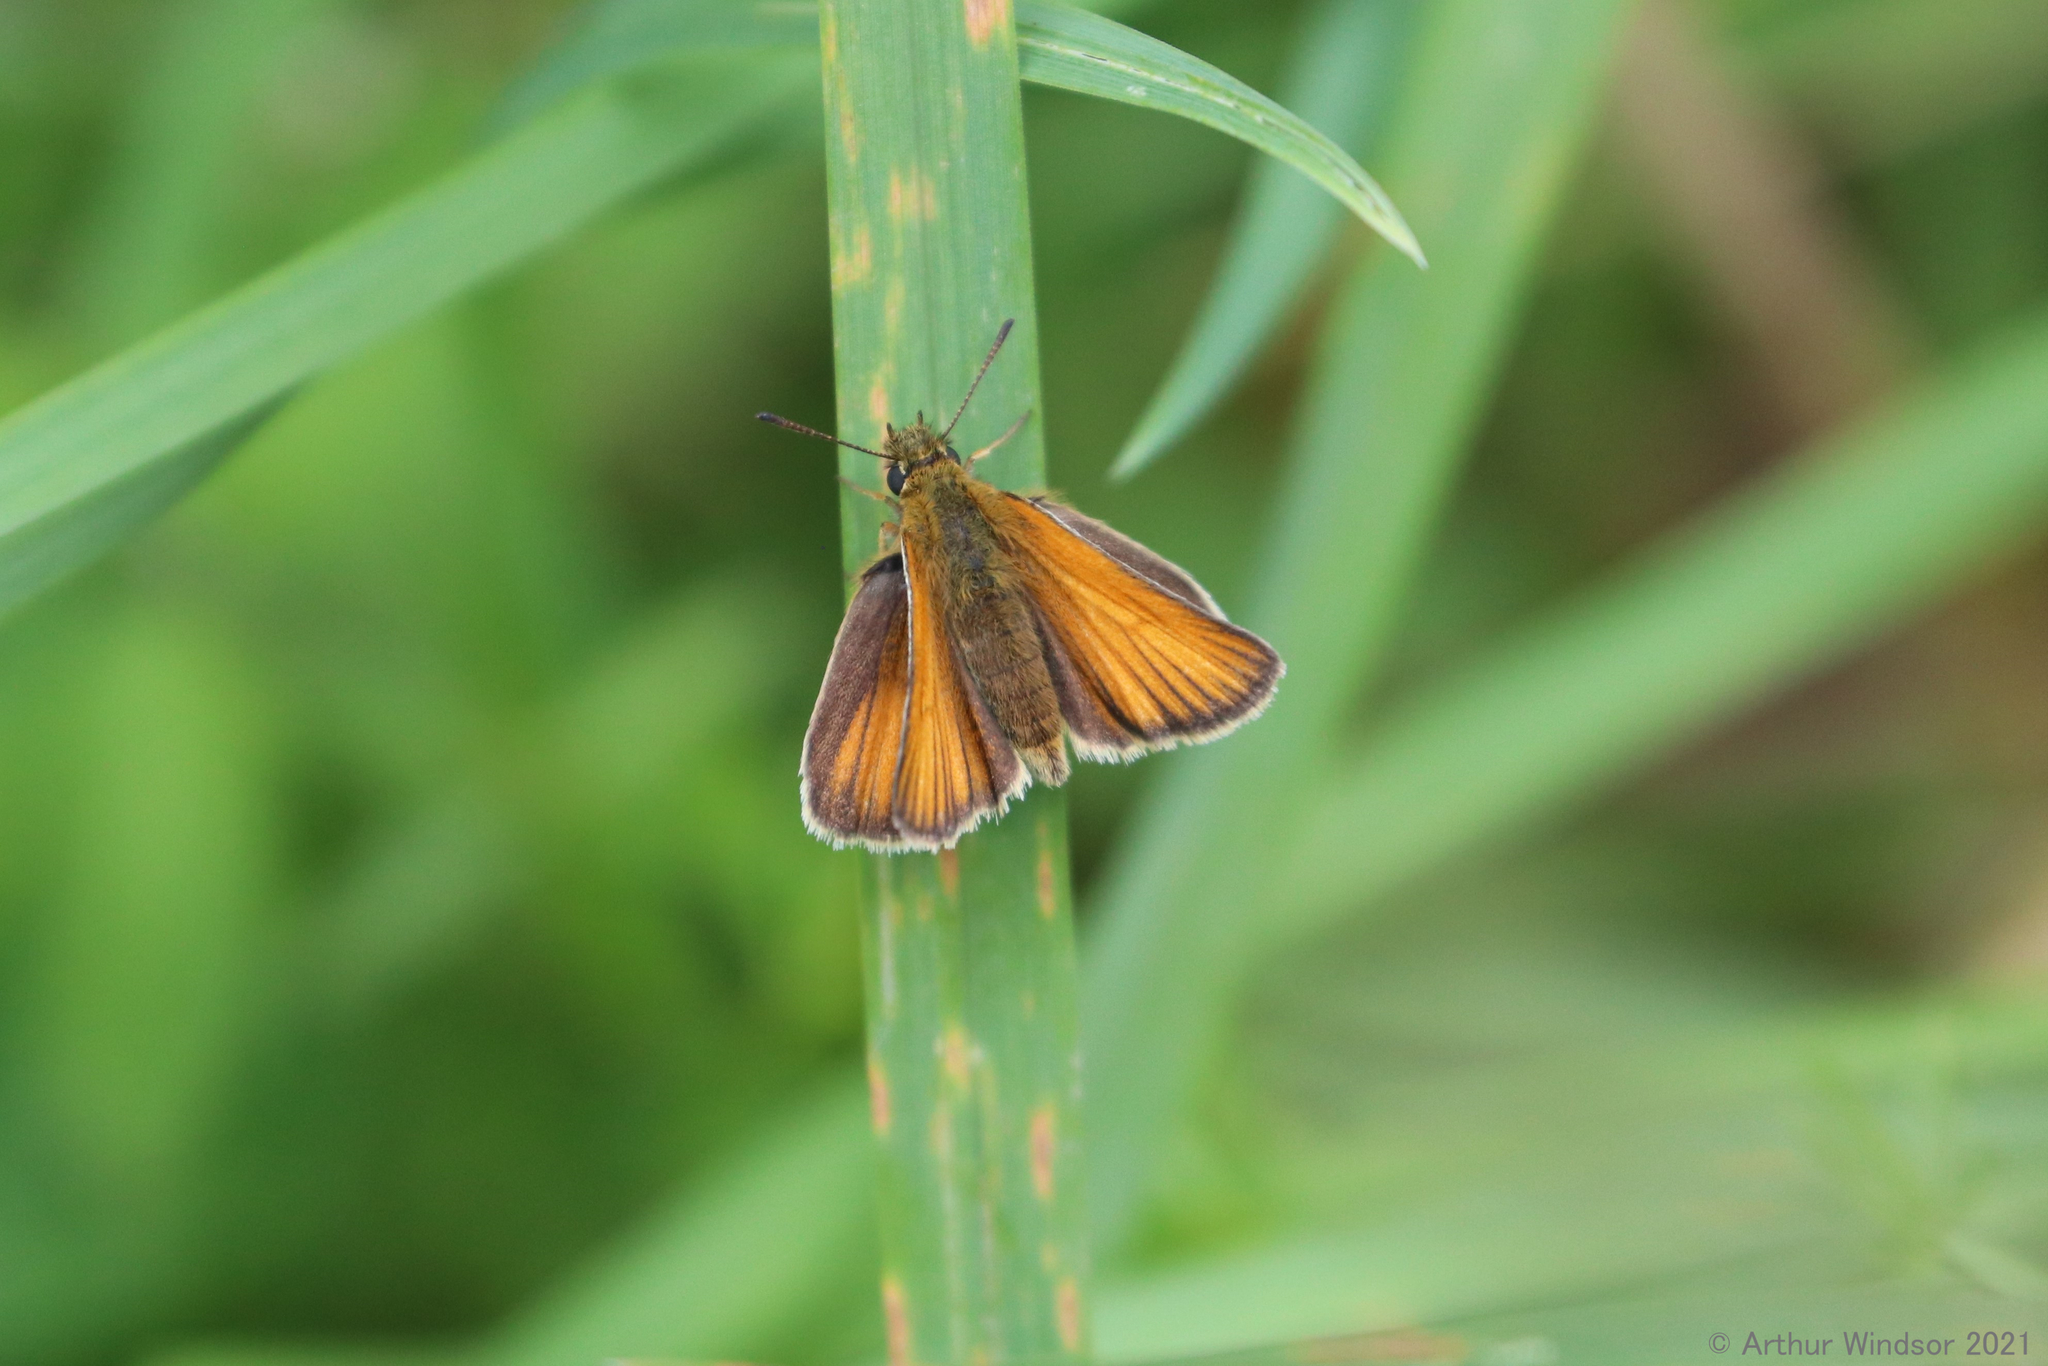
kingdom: Animalia
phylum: Arthropoda
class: Insecta
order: Lepidoptera
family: Hesperiidae
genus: Thymelicus
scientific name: Thymelicus lineola
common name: Essex skipper
